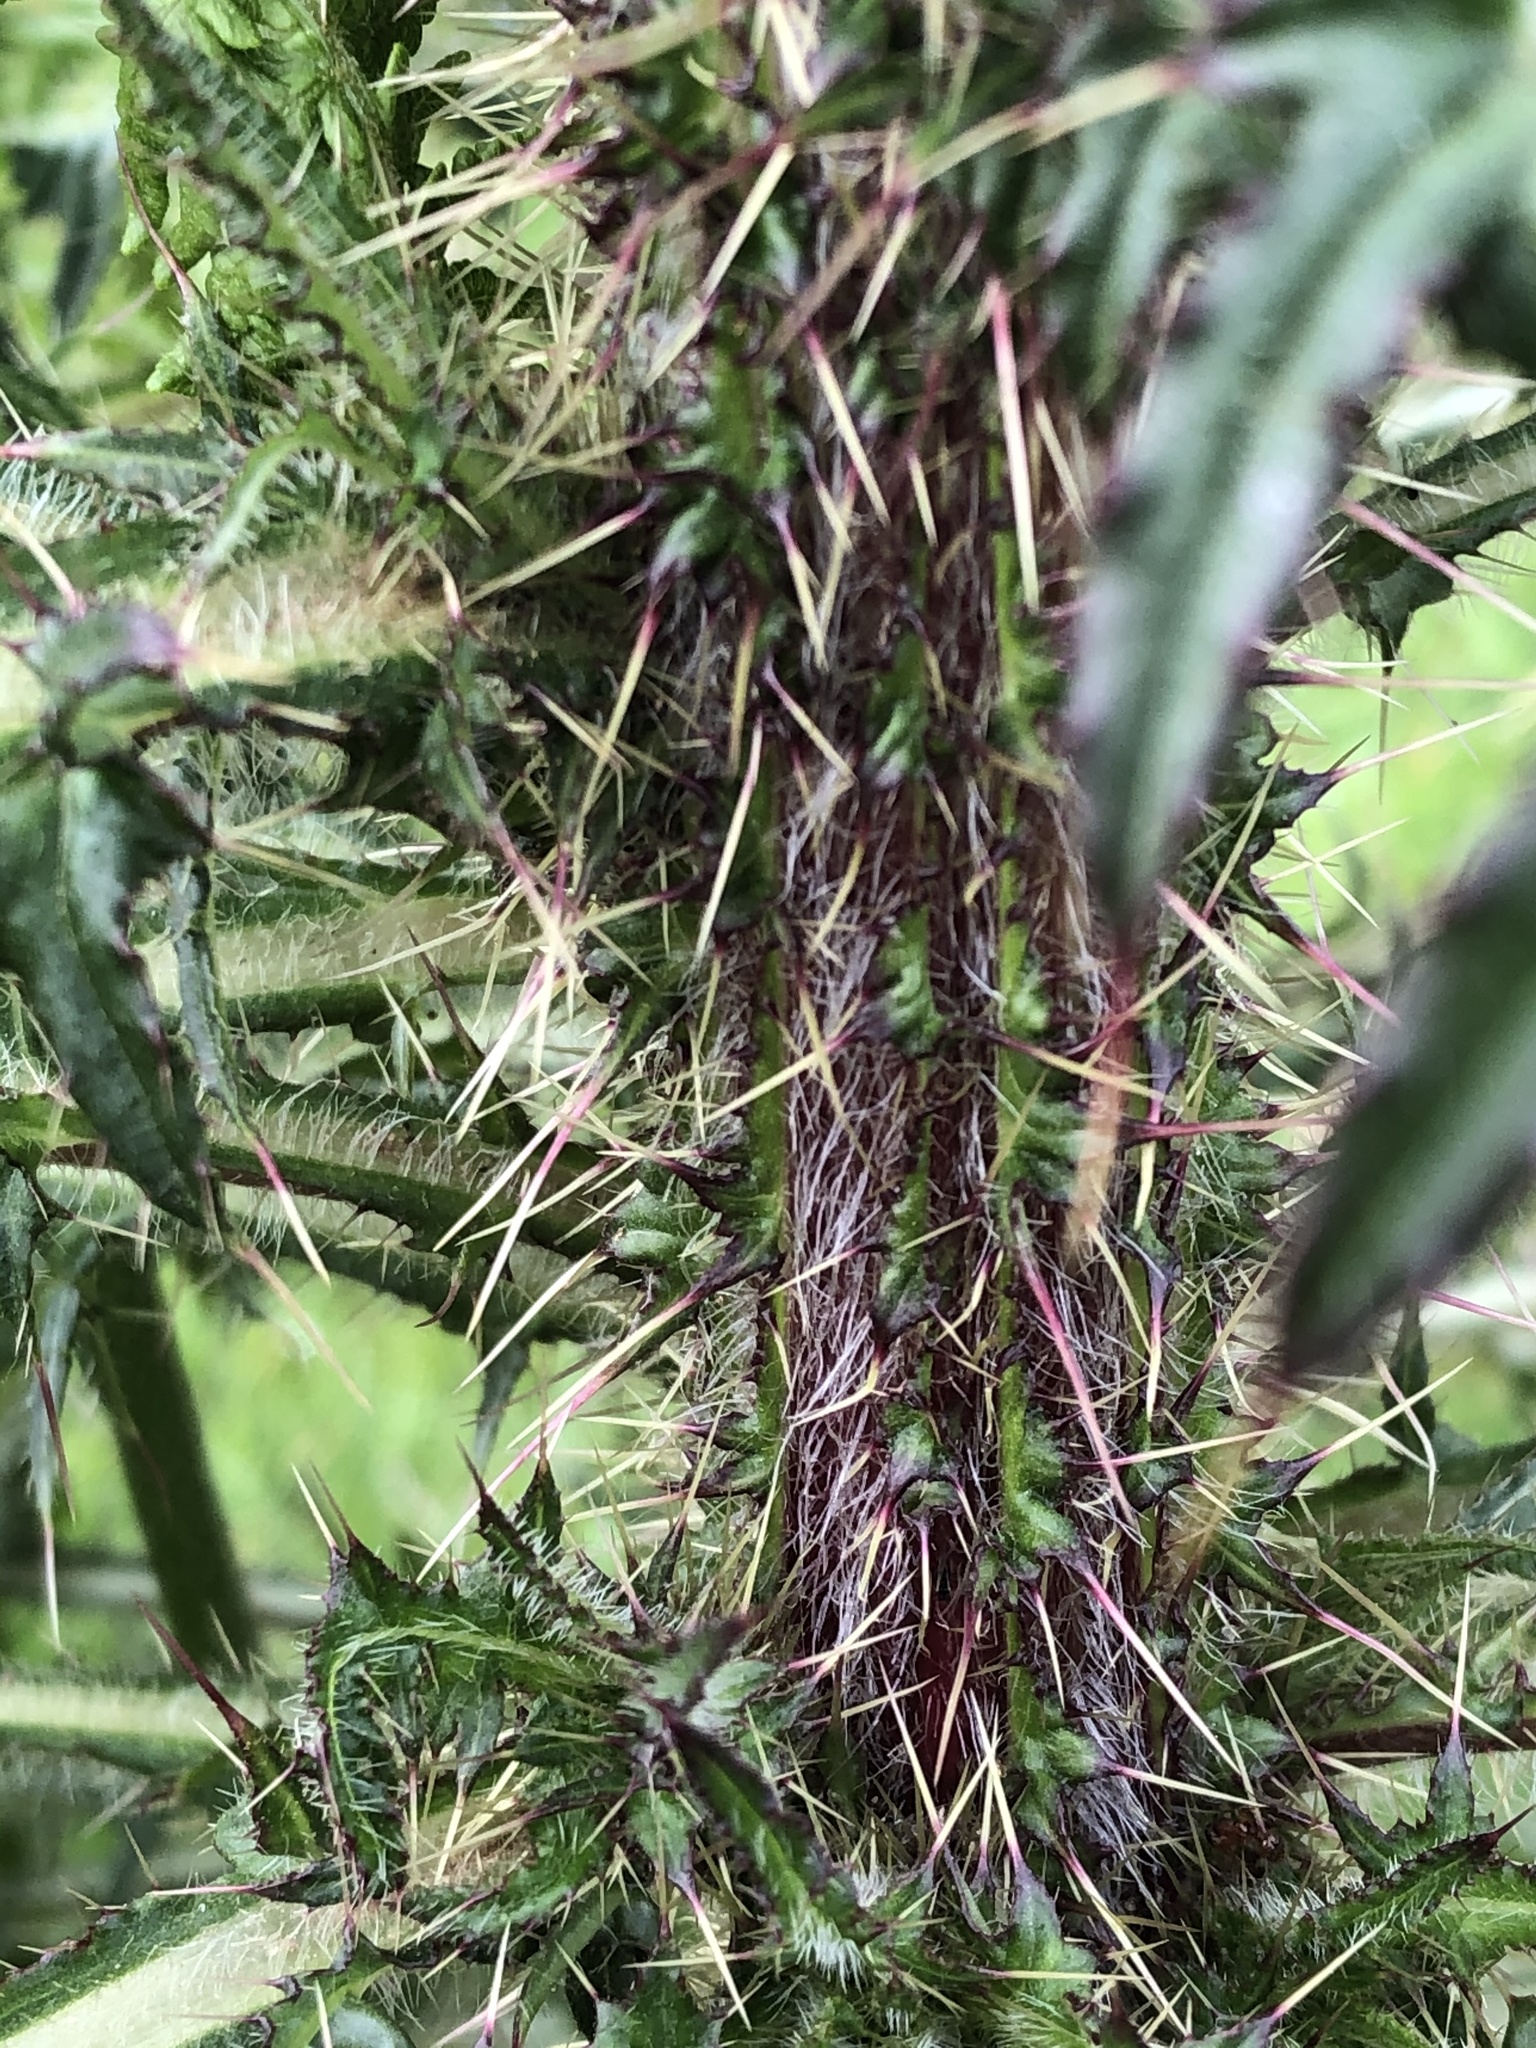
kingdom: Plantae
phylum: Tracheophyta
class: Magnoliopsida
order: Asterales
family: Asteraceae
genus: Cirsium
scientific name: Cirsium palustre
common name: Marsh thistle
